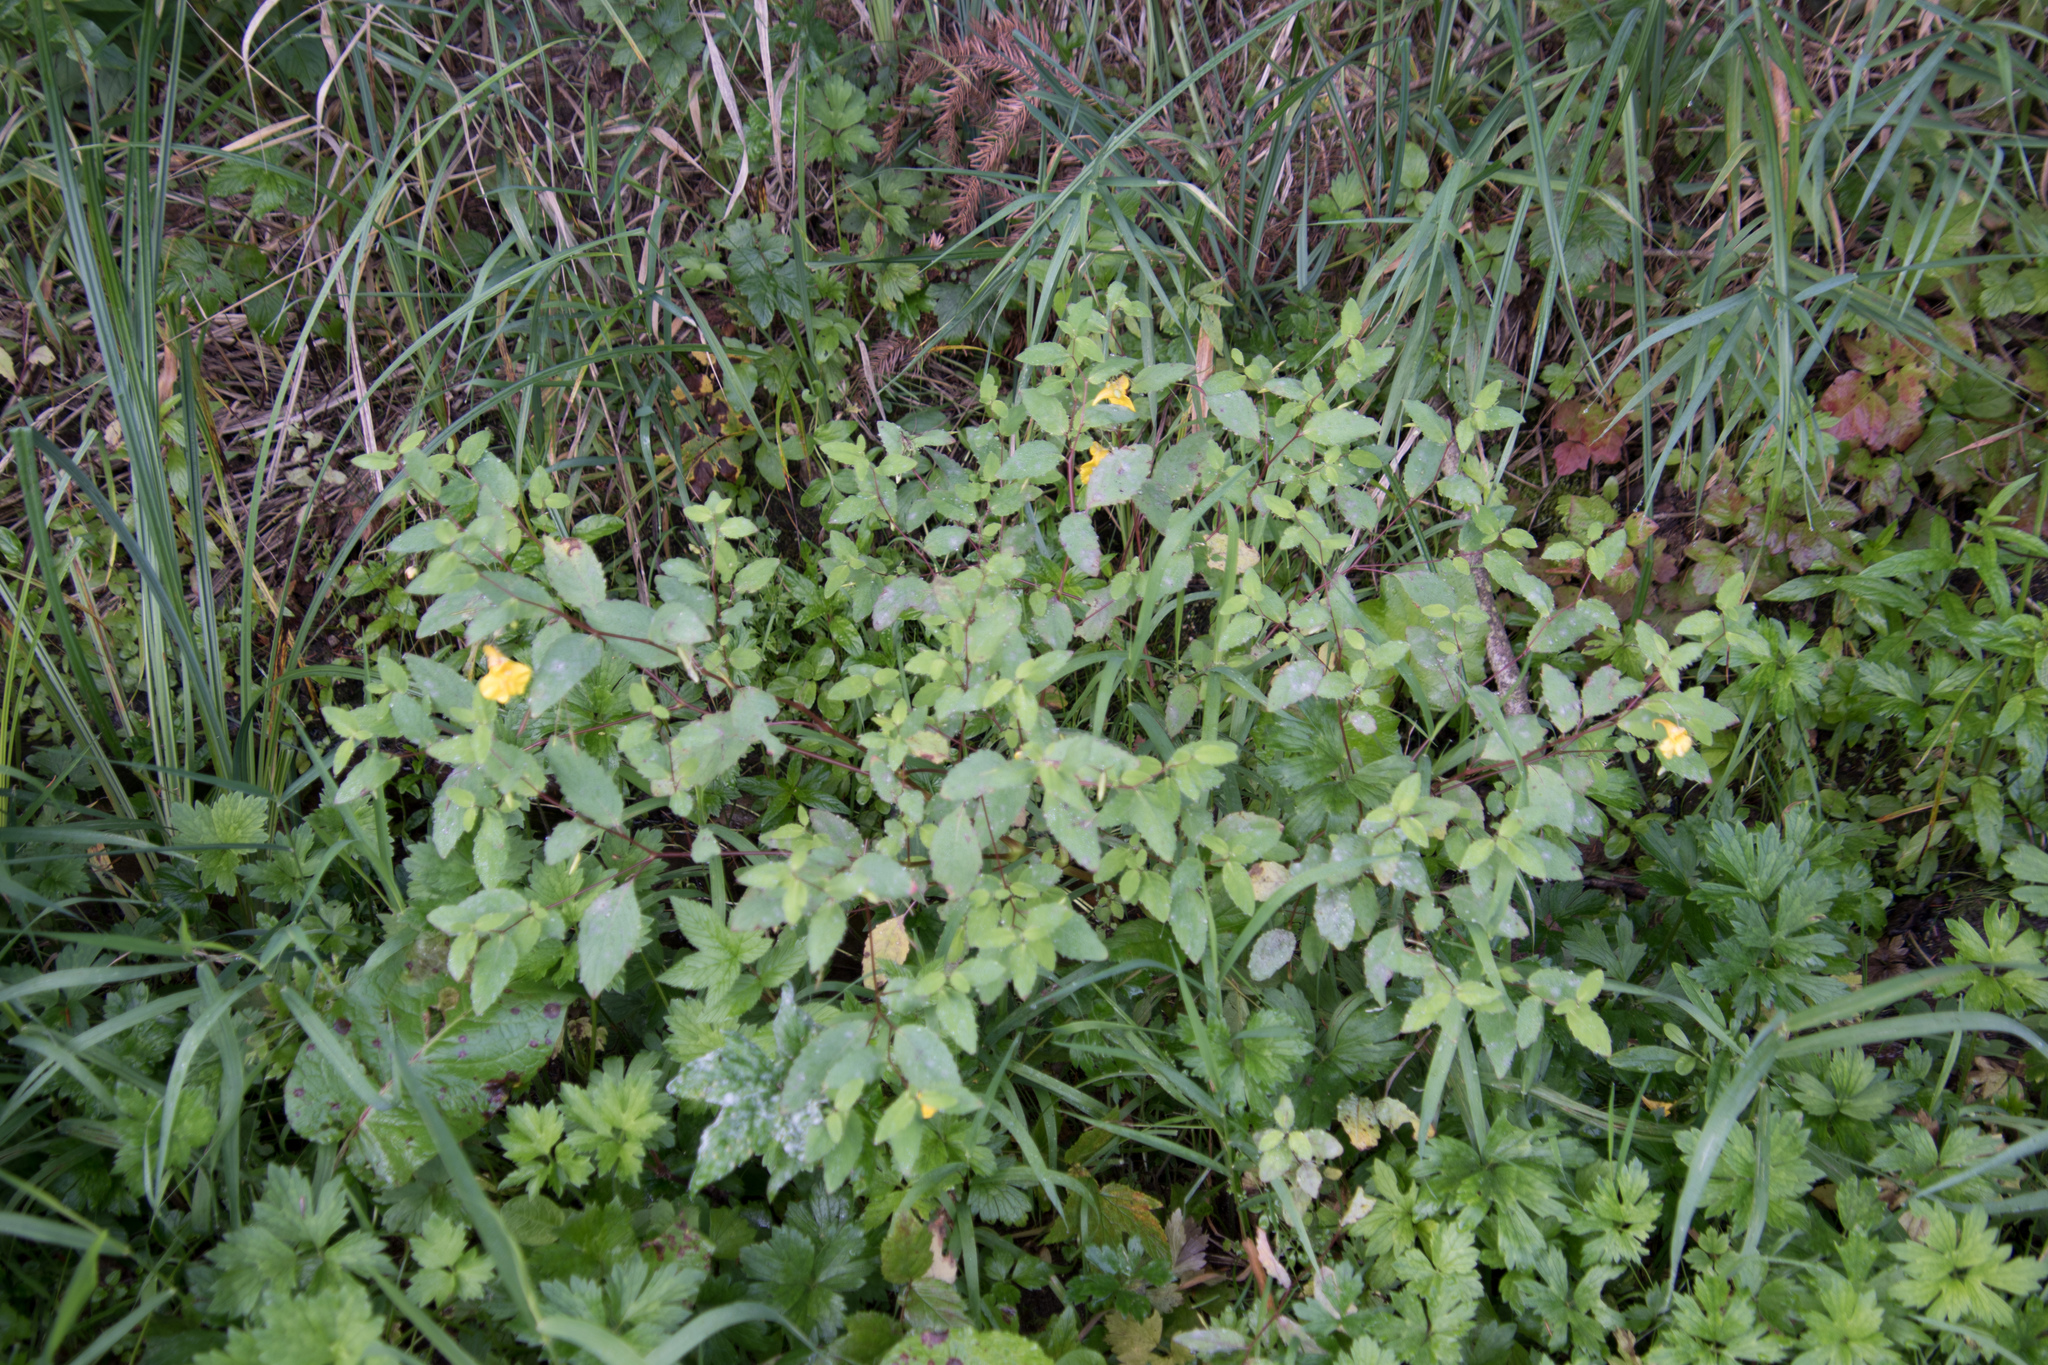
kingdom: Plantae
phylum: Tracheophyta
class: Magnoliopsida
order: Ericales
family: Balsaminaceae
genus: Impatiens
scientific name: Impatiens noli-tangere
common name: Touch-me-not balsam
